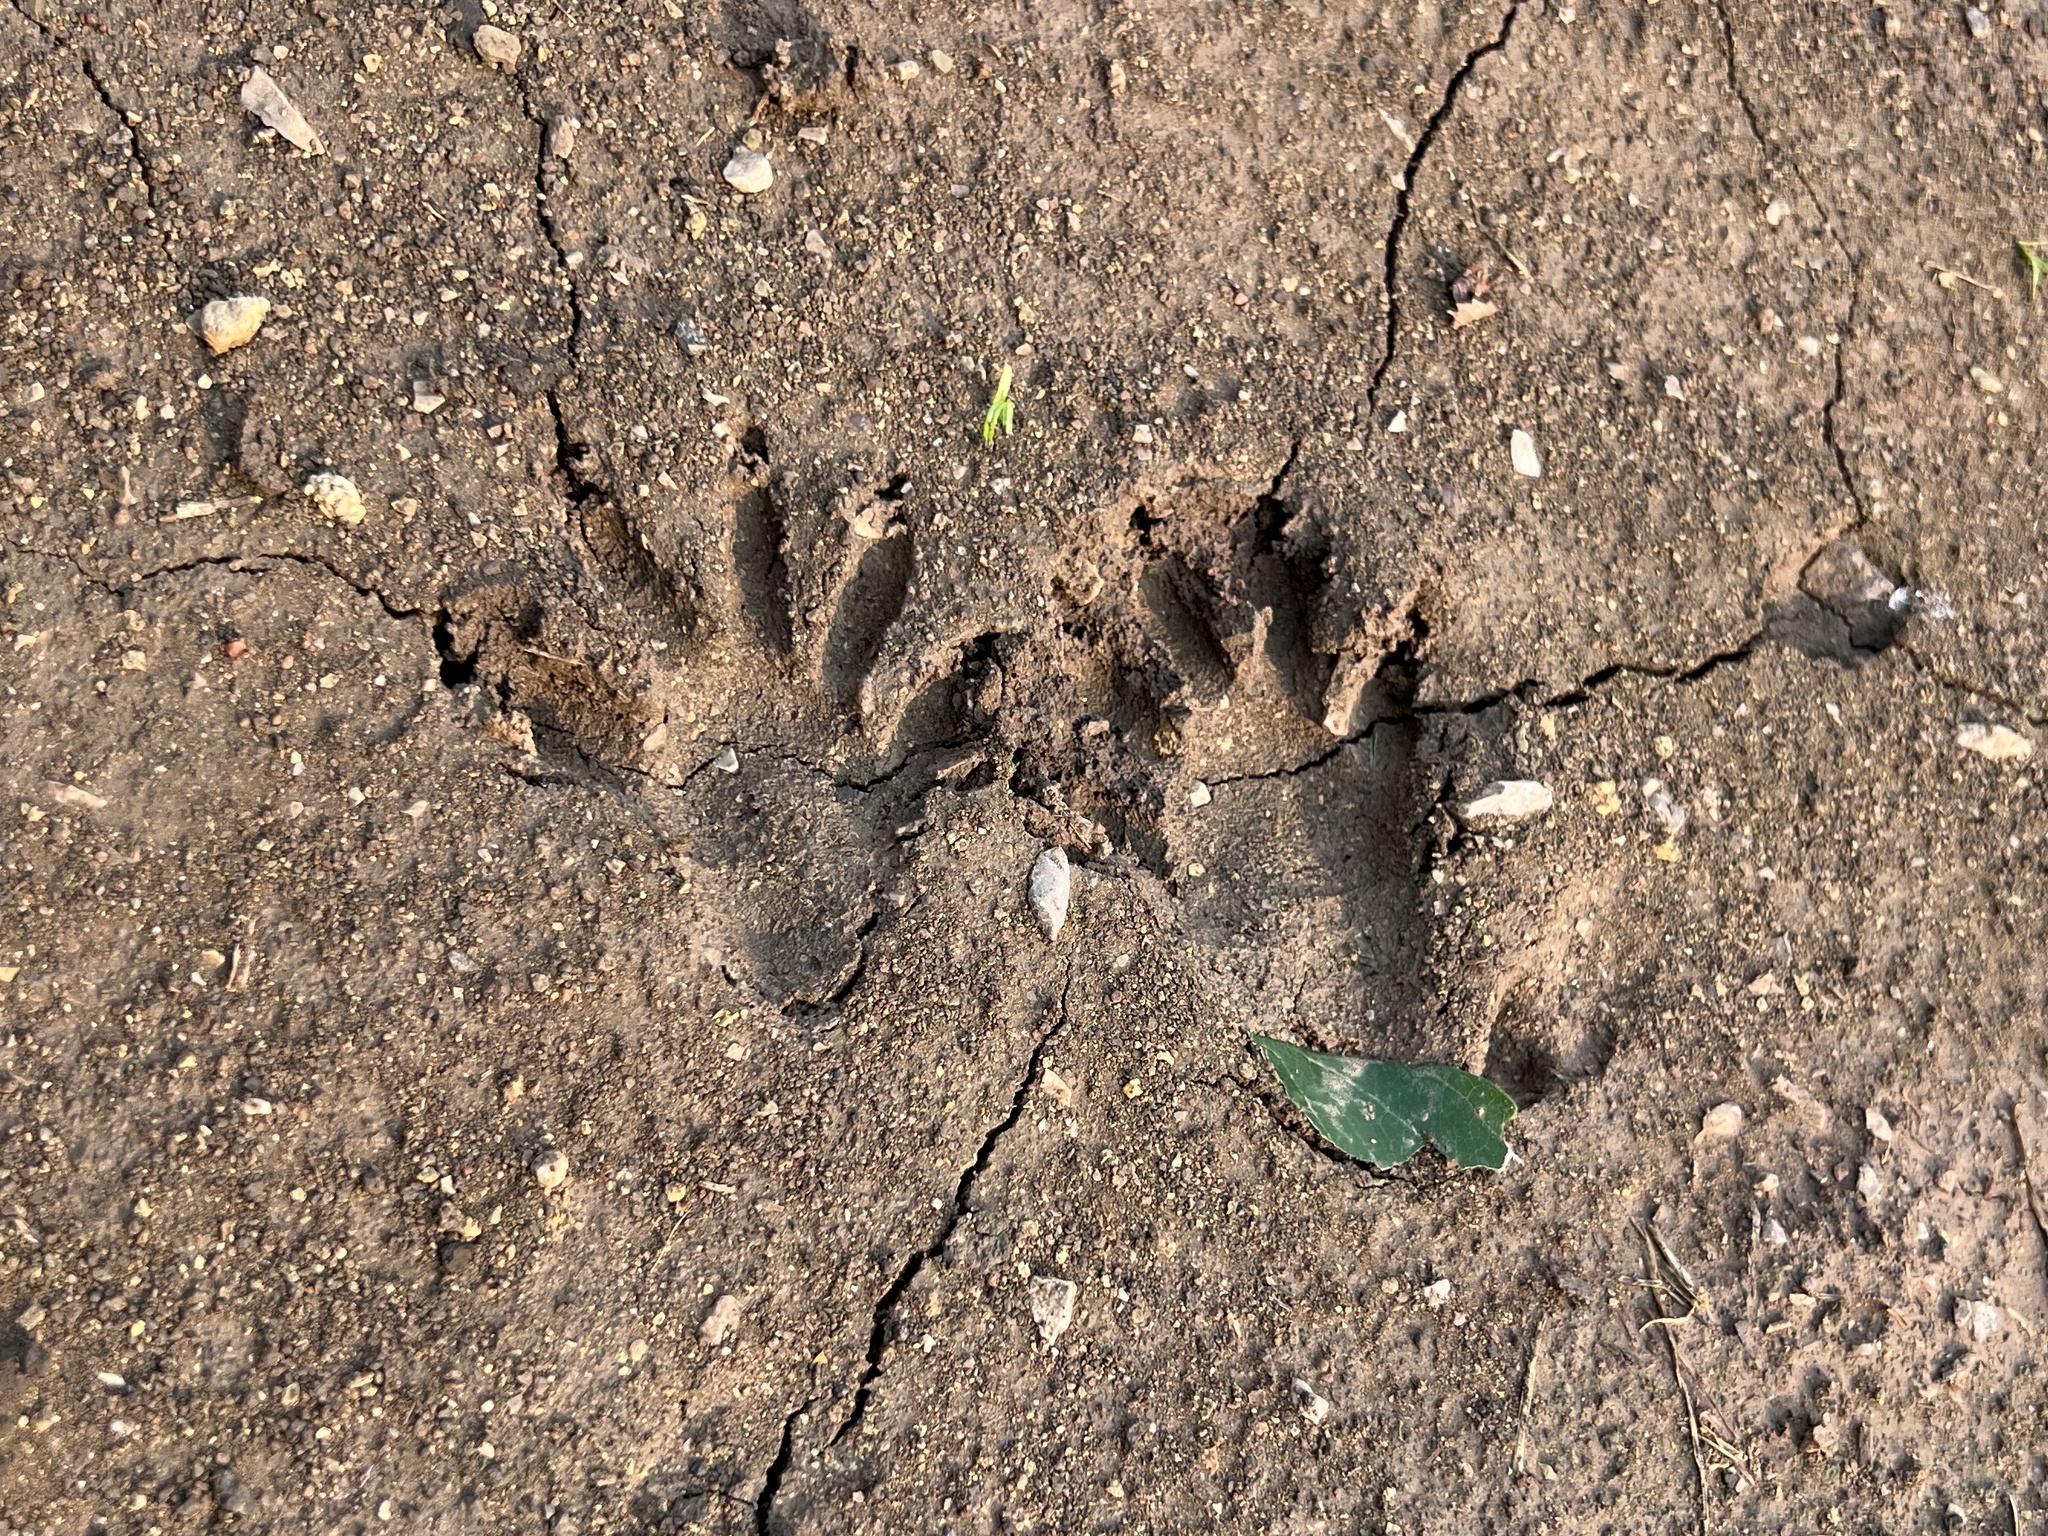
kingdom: Animalia
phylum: Chordata
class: Mammalia
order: Carnivora
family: Procyonidae
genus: Procyon
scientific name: Procyon lotor
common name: Raccoon
